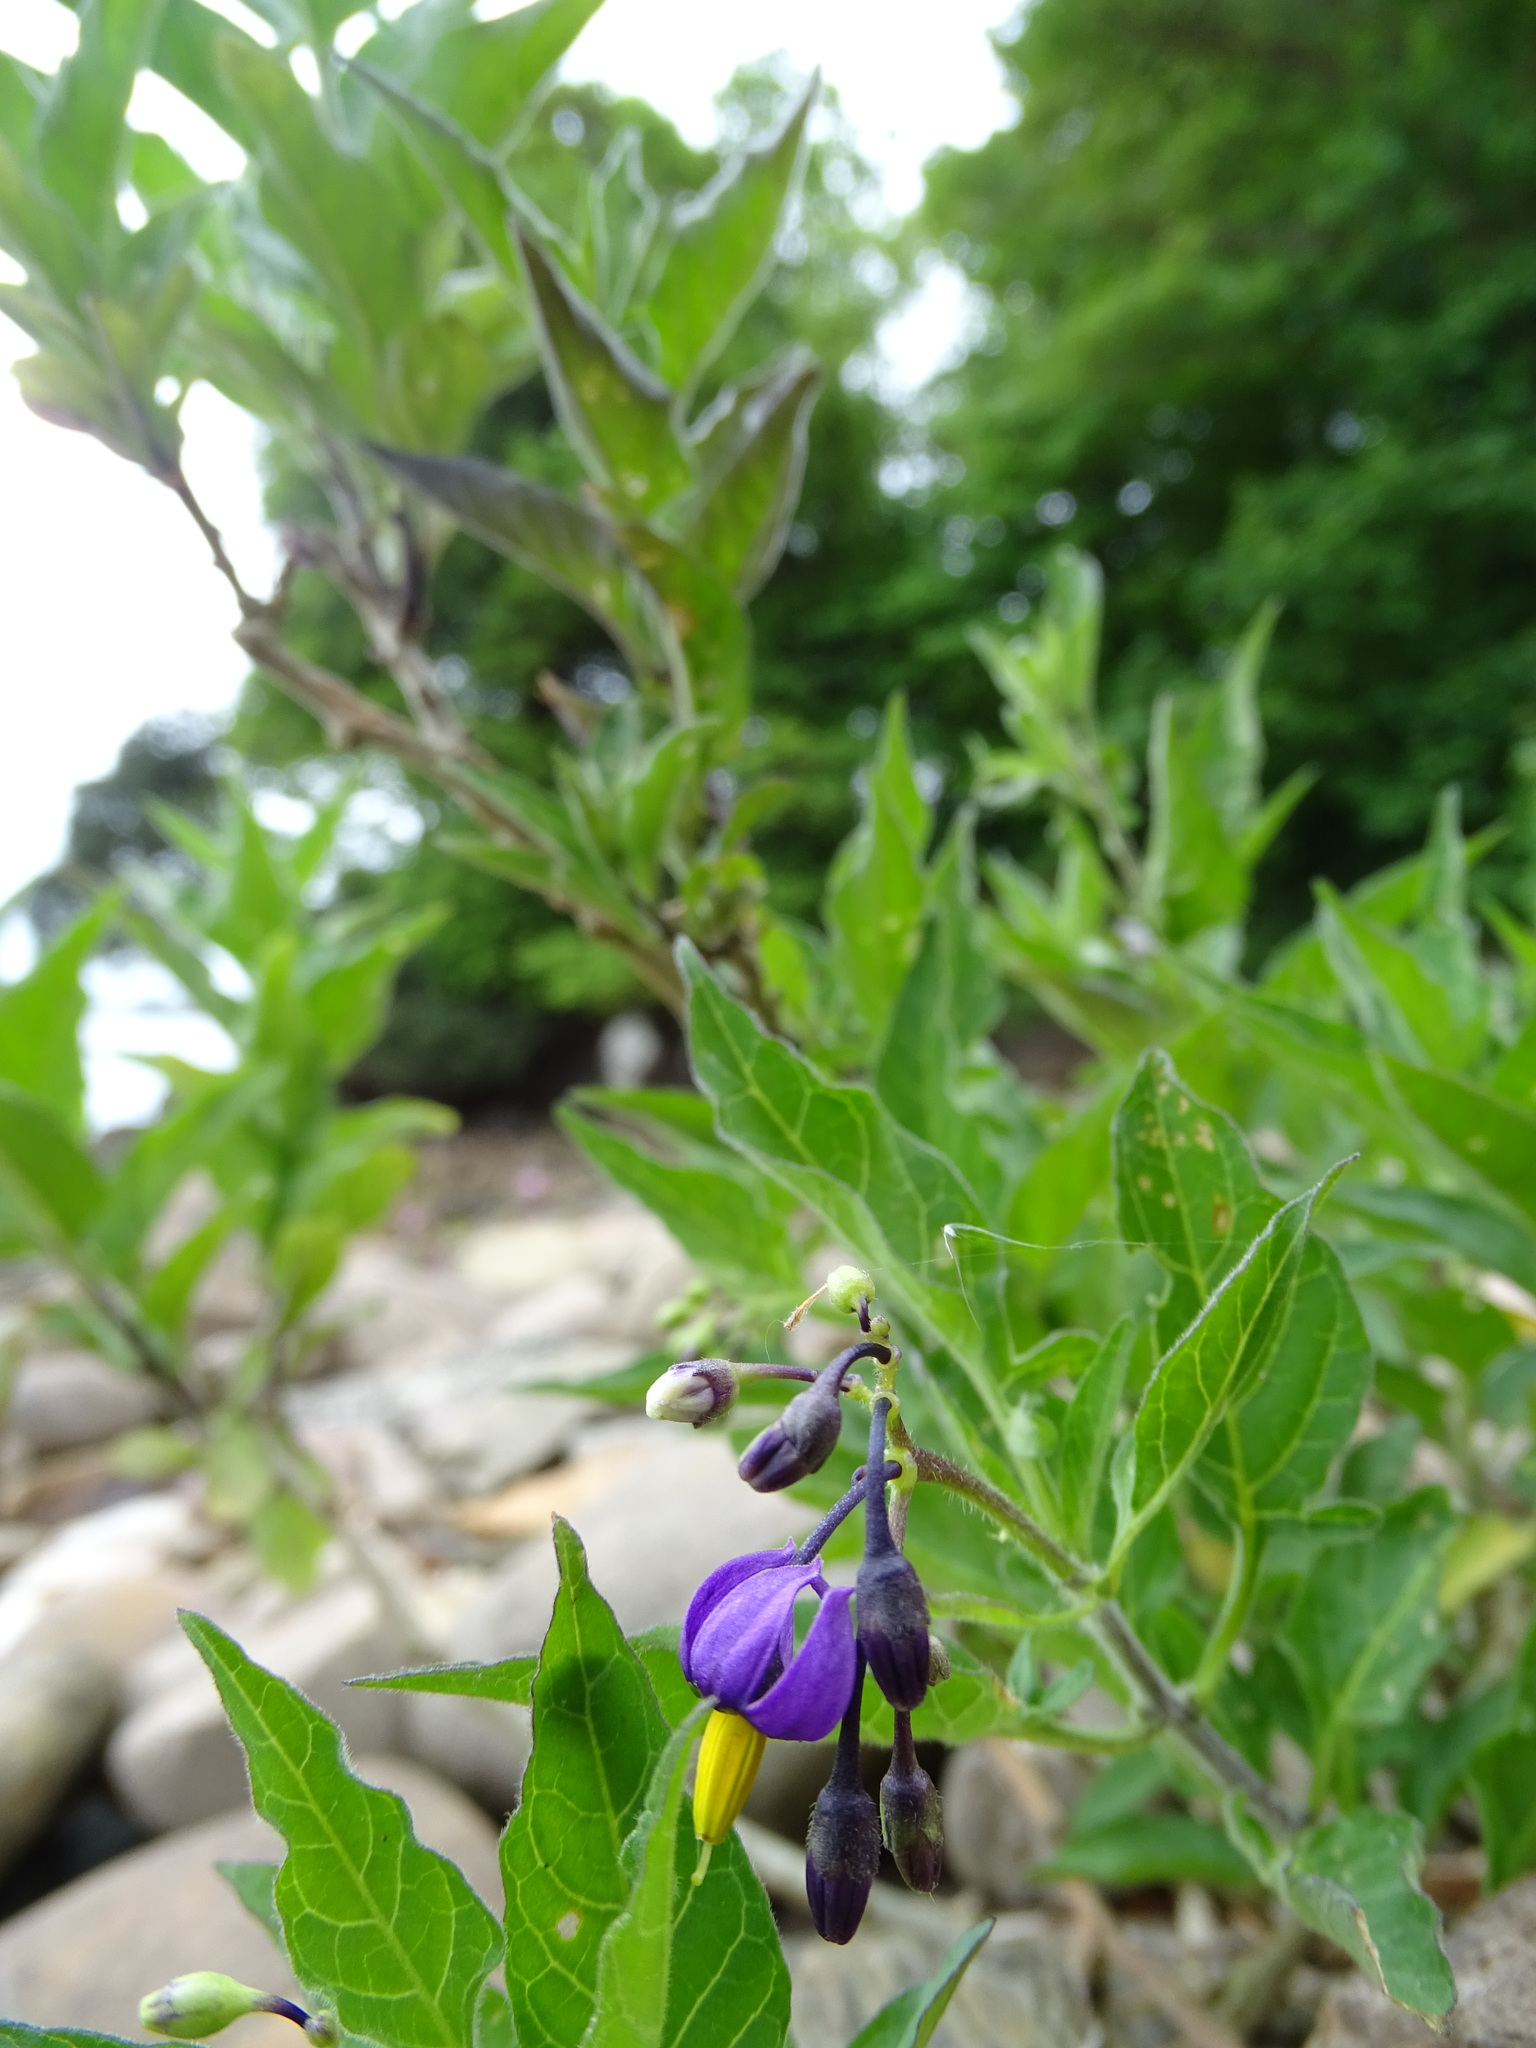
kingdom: Plantae
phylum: Tracheophyta
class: Magnoliopsida
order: Solanales
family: Solanaceae
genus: Solanum
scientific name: Solanum dulcamara
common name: Climbing nightshade
